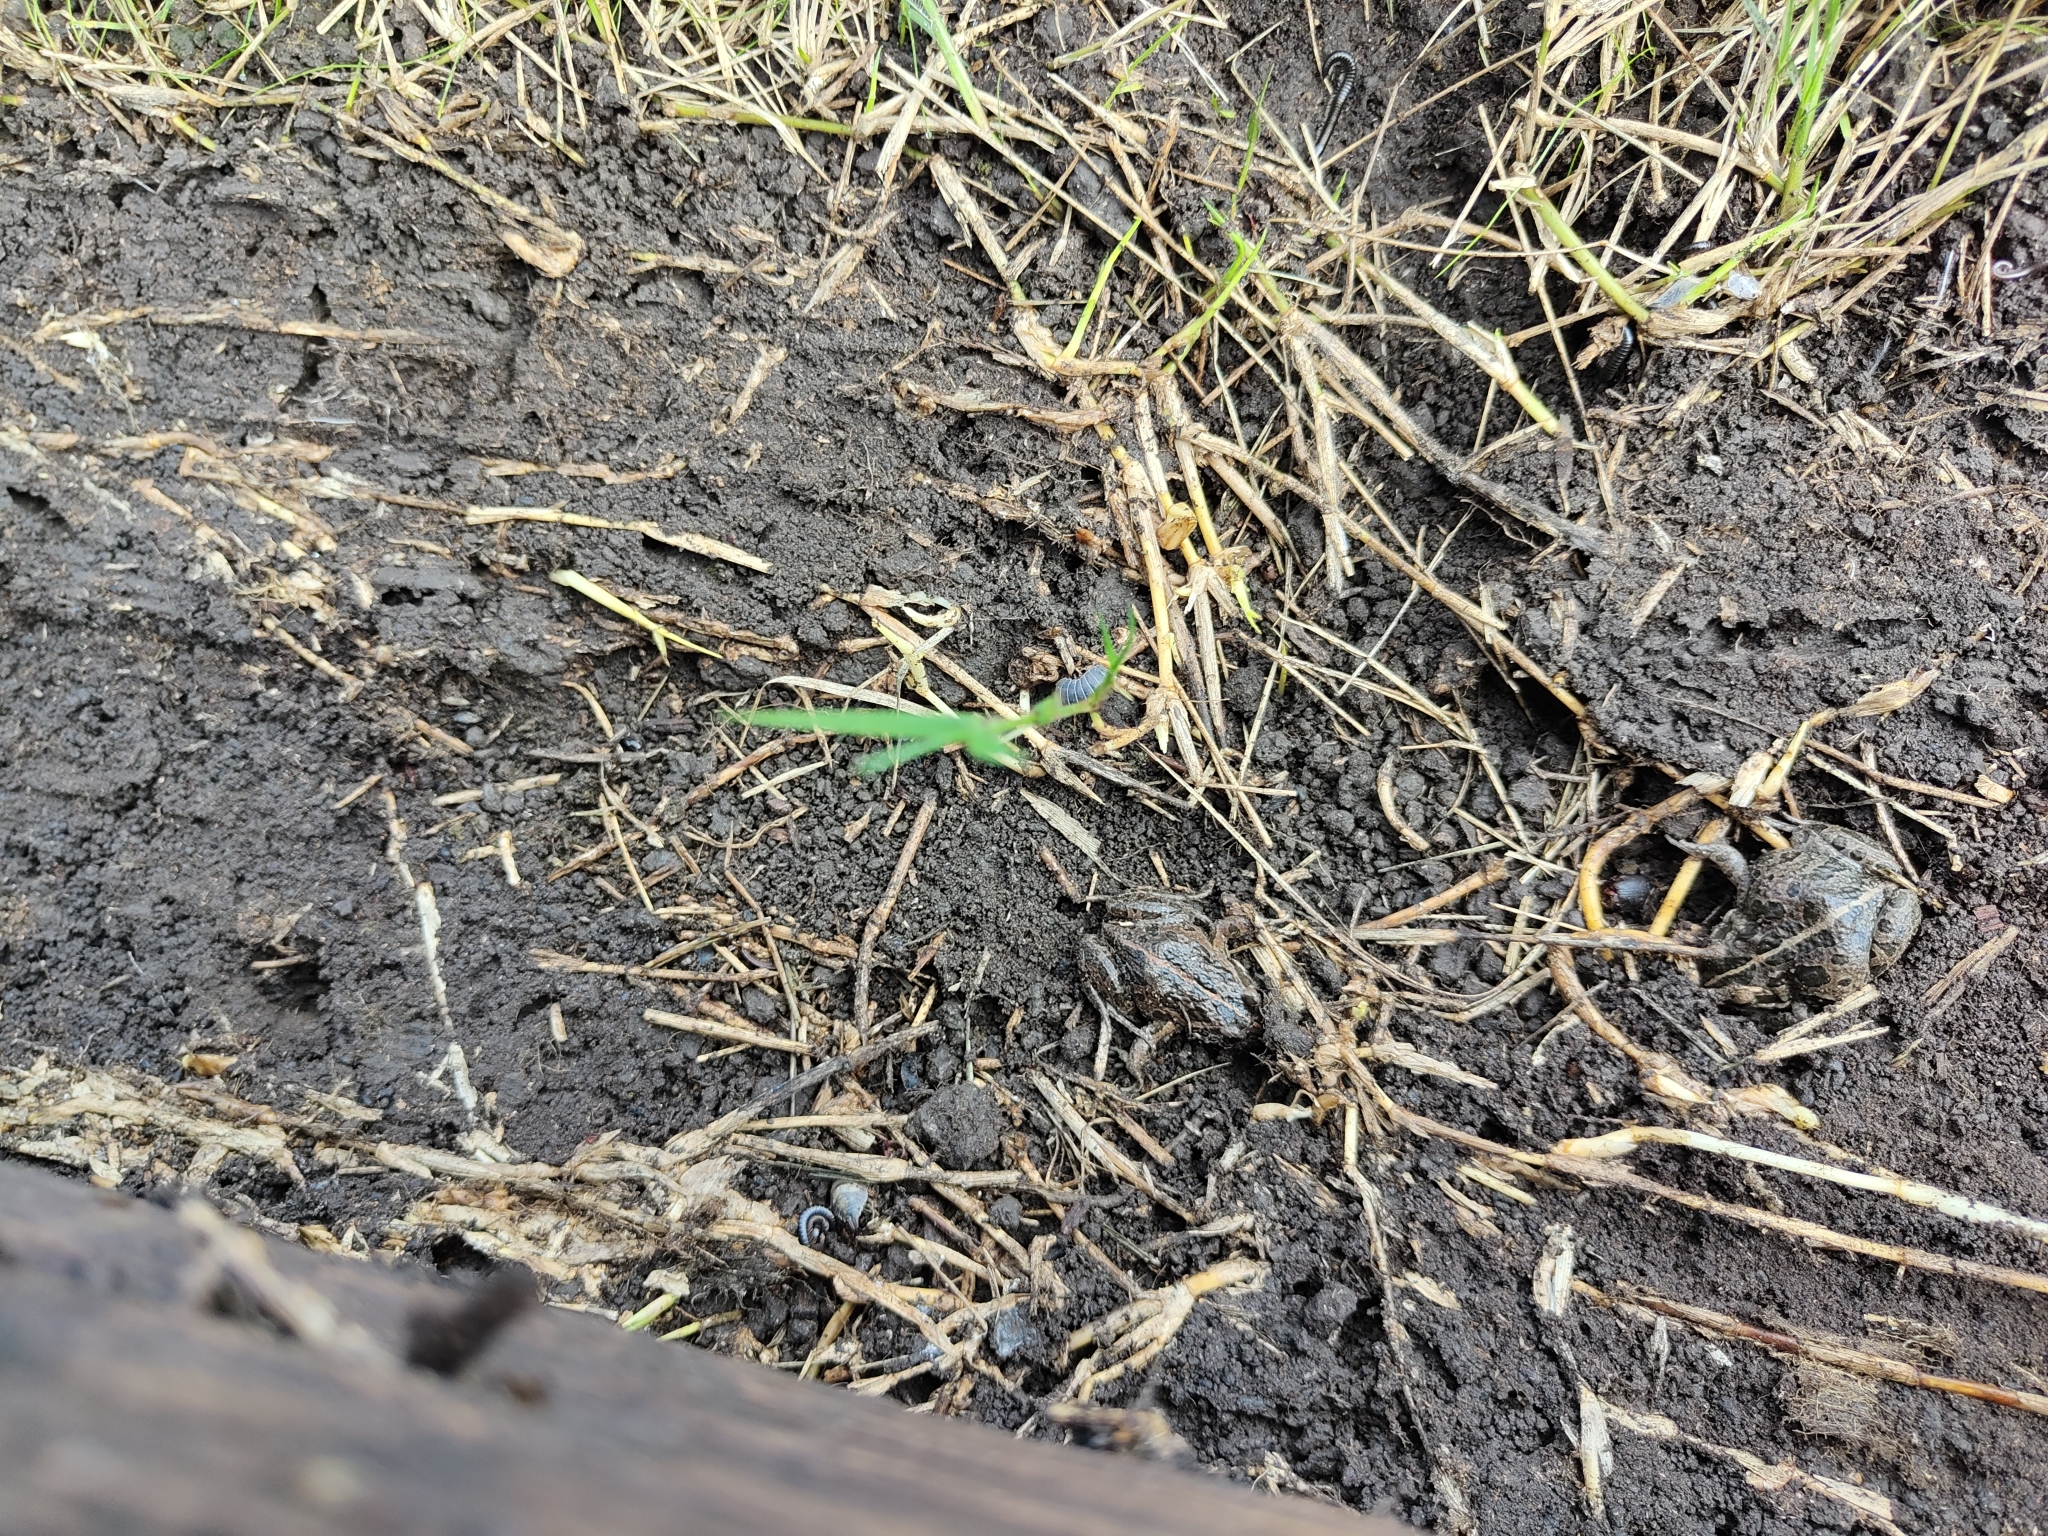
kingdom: Animalia
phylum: Chordata
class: Amphibia
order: Anura
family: Limnodynastidae
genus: Limnodynastes
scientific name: Limnodynastes tasmaniensis
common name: Spotted marsh frog
